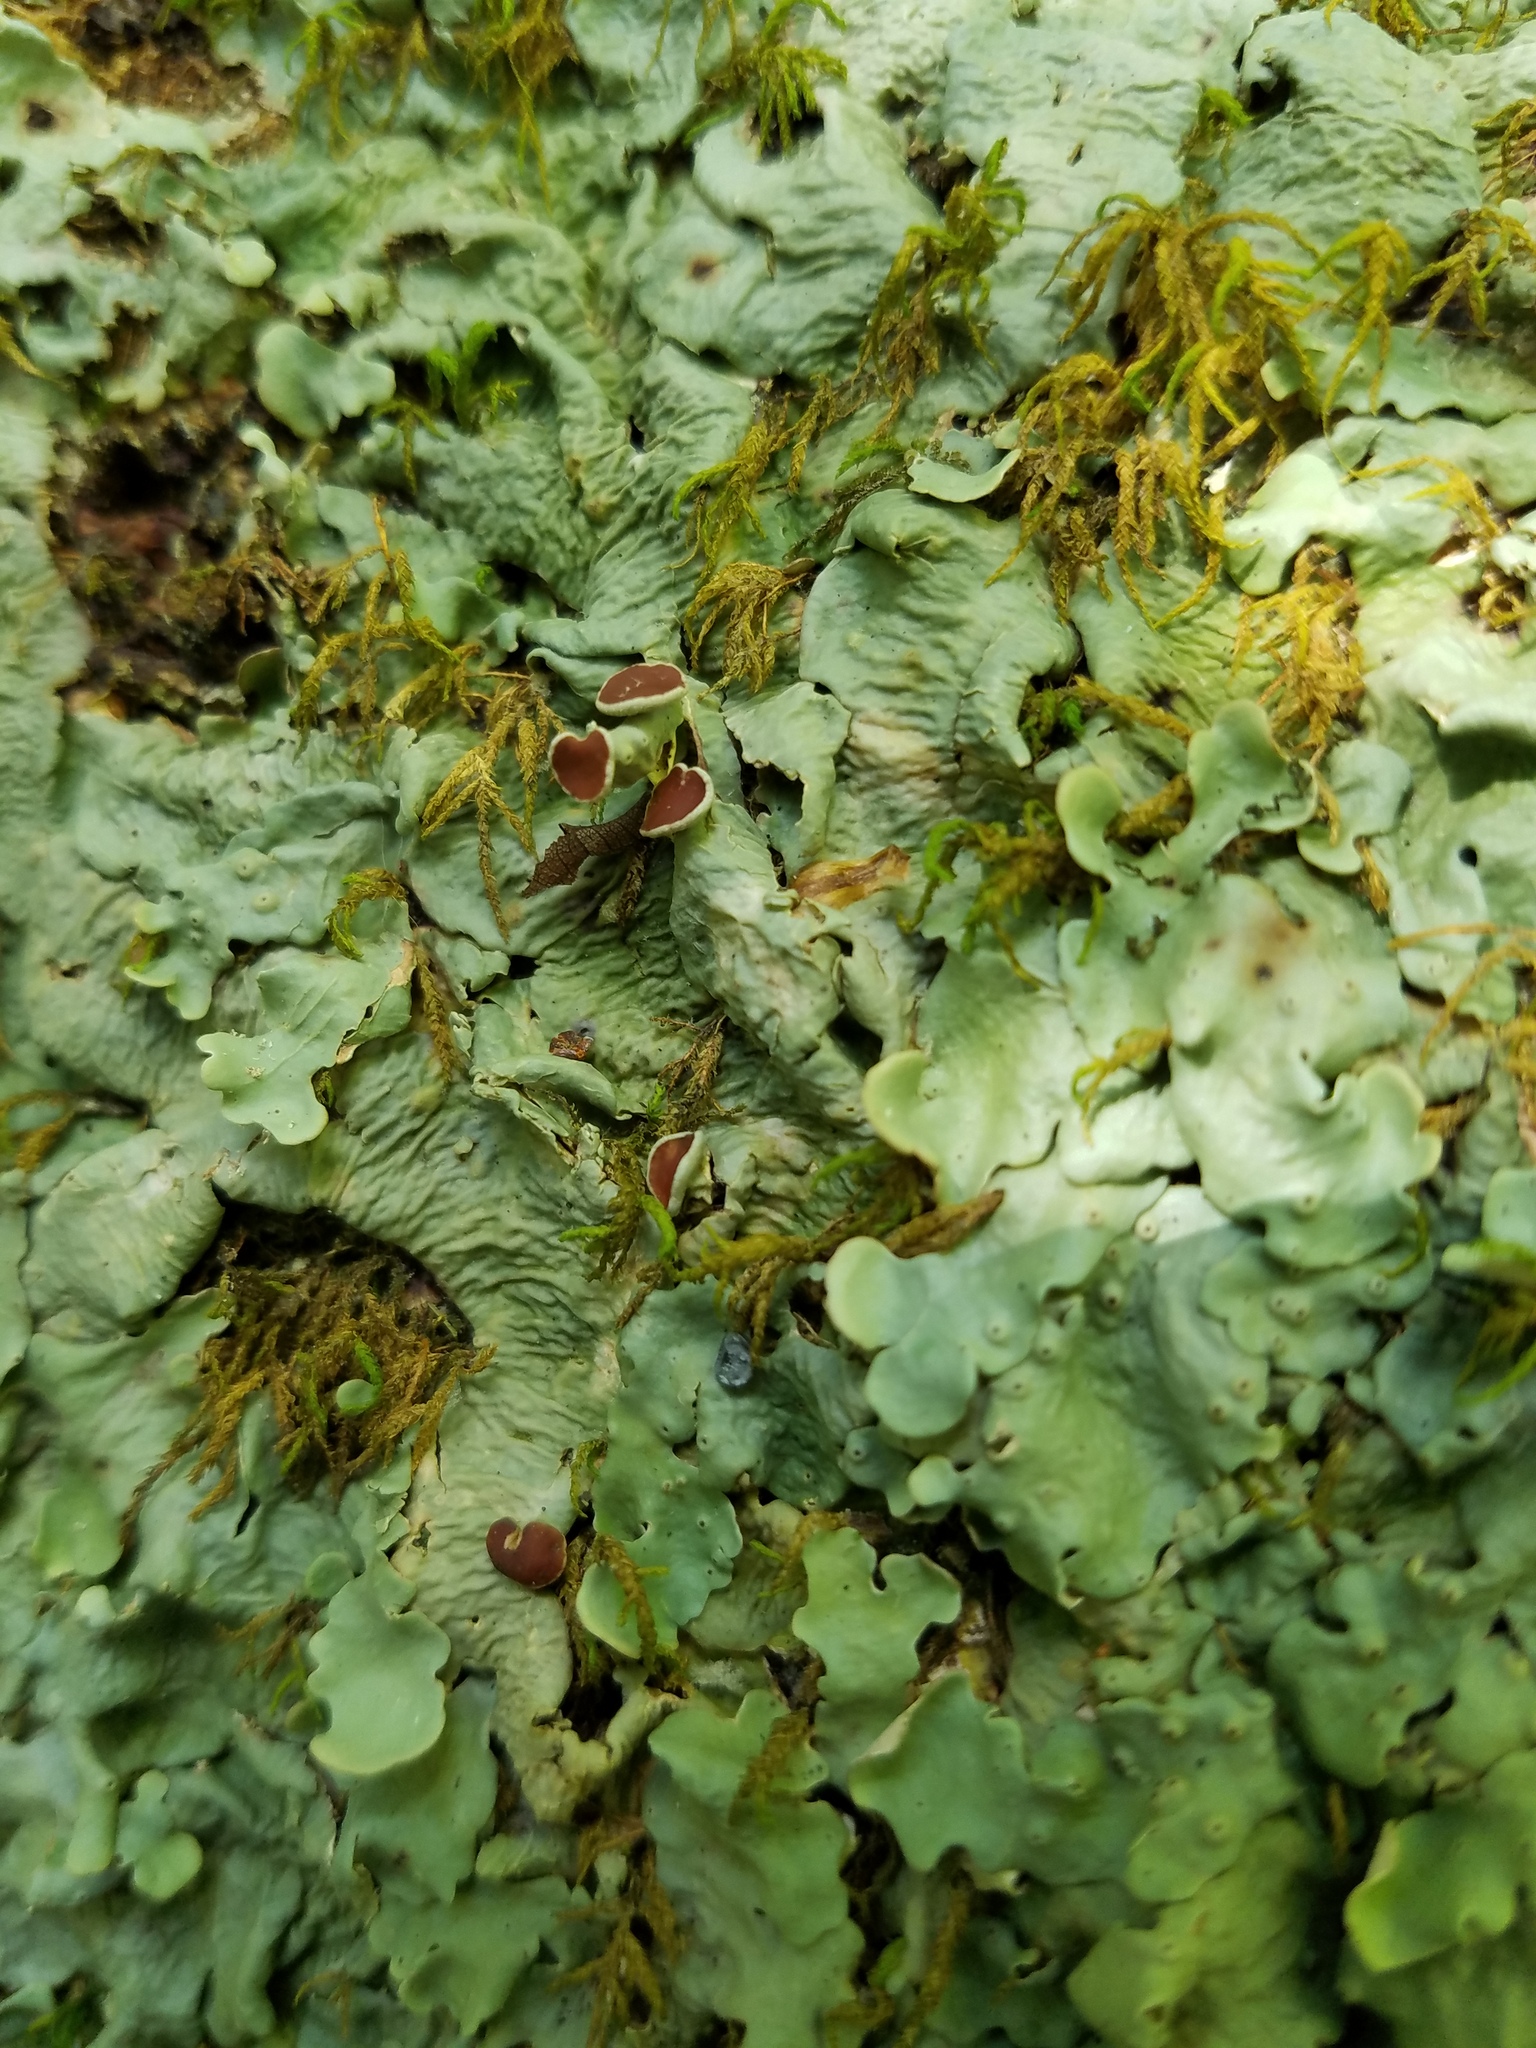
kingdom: Fungi
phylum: Ascomycota
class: Lecanoromycetes
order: Peltigerales
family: Lobariaceae
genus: Ricasolia
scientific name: Ricasolia quercizans
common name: Smooth lungwort
